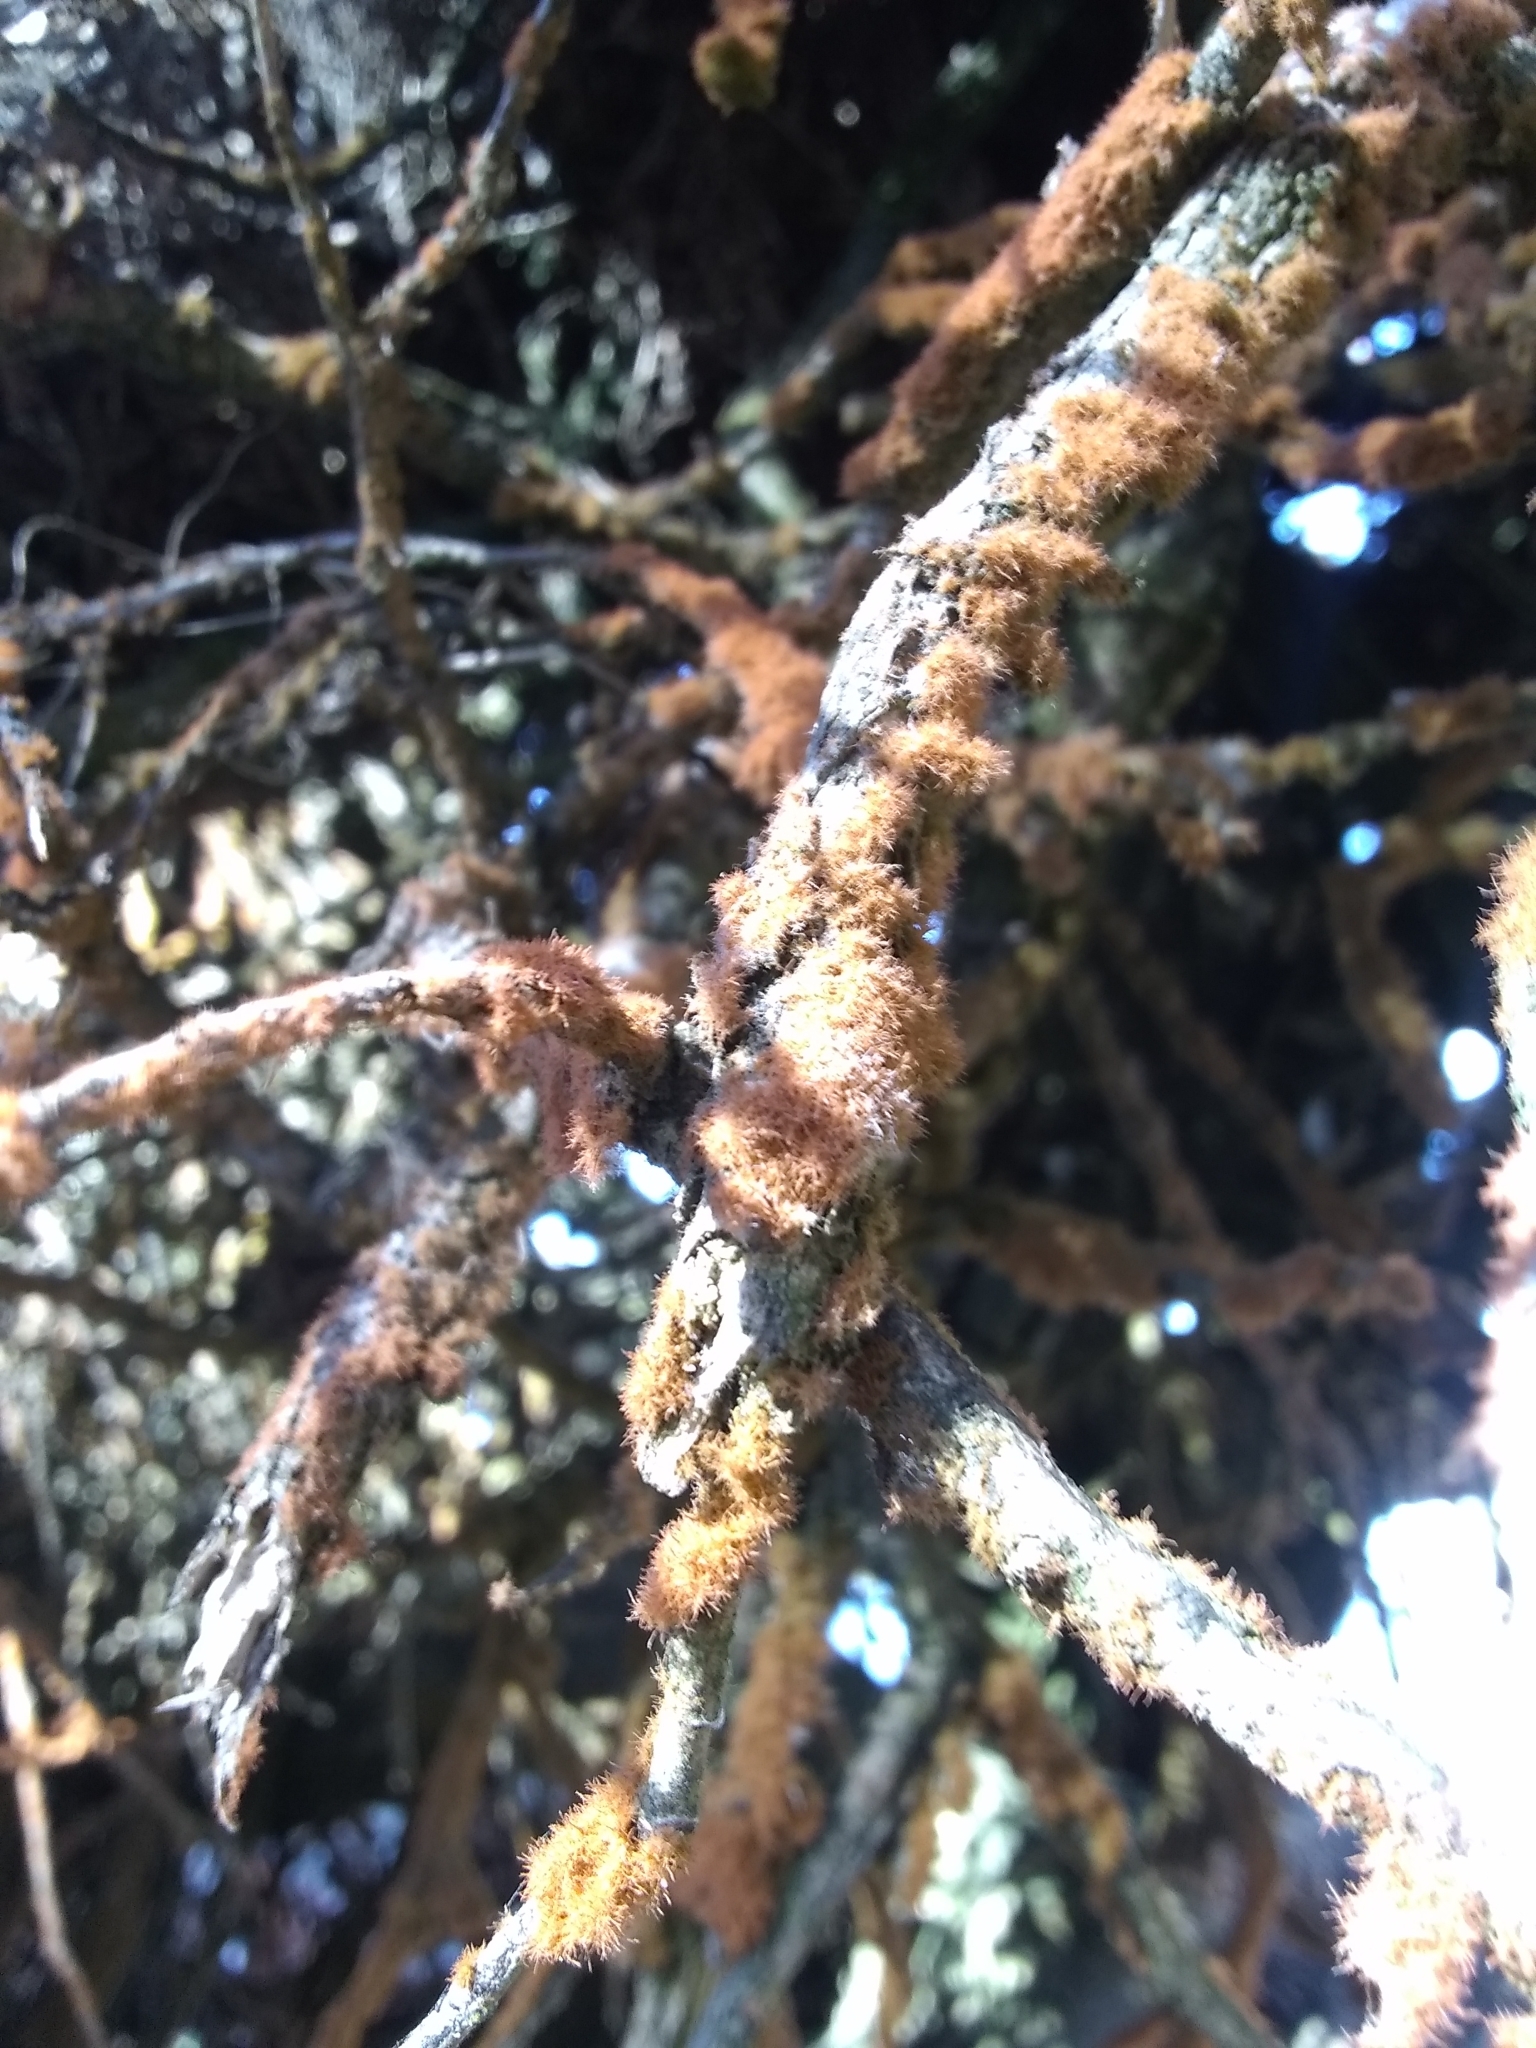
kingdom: Plantae
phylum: Chlorophyta
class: Ulvophyceae
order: Trentepohliales
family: Trentepohliaceae
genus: Trentepohlia
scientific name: Trentepohlia aurea
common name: Orange rock hair
